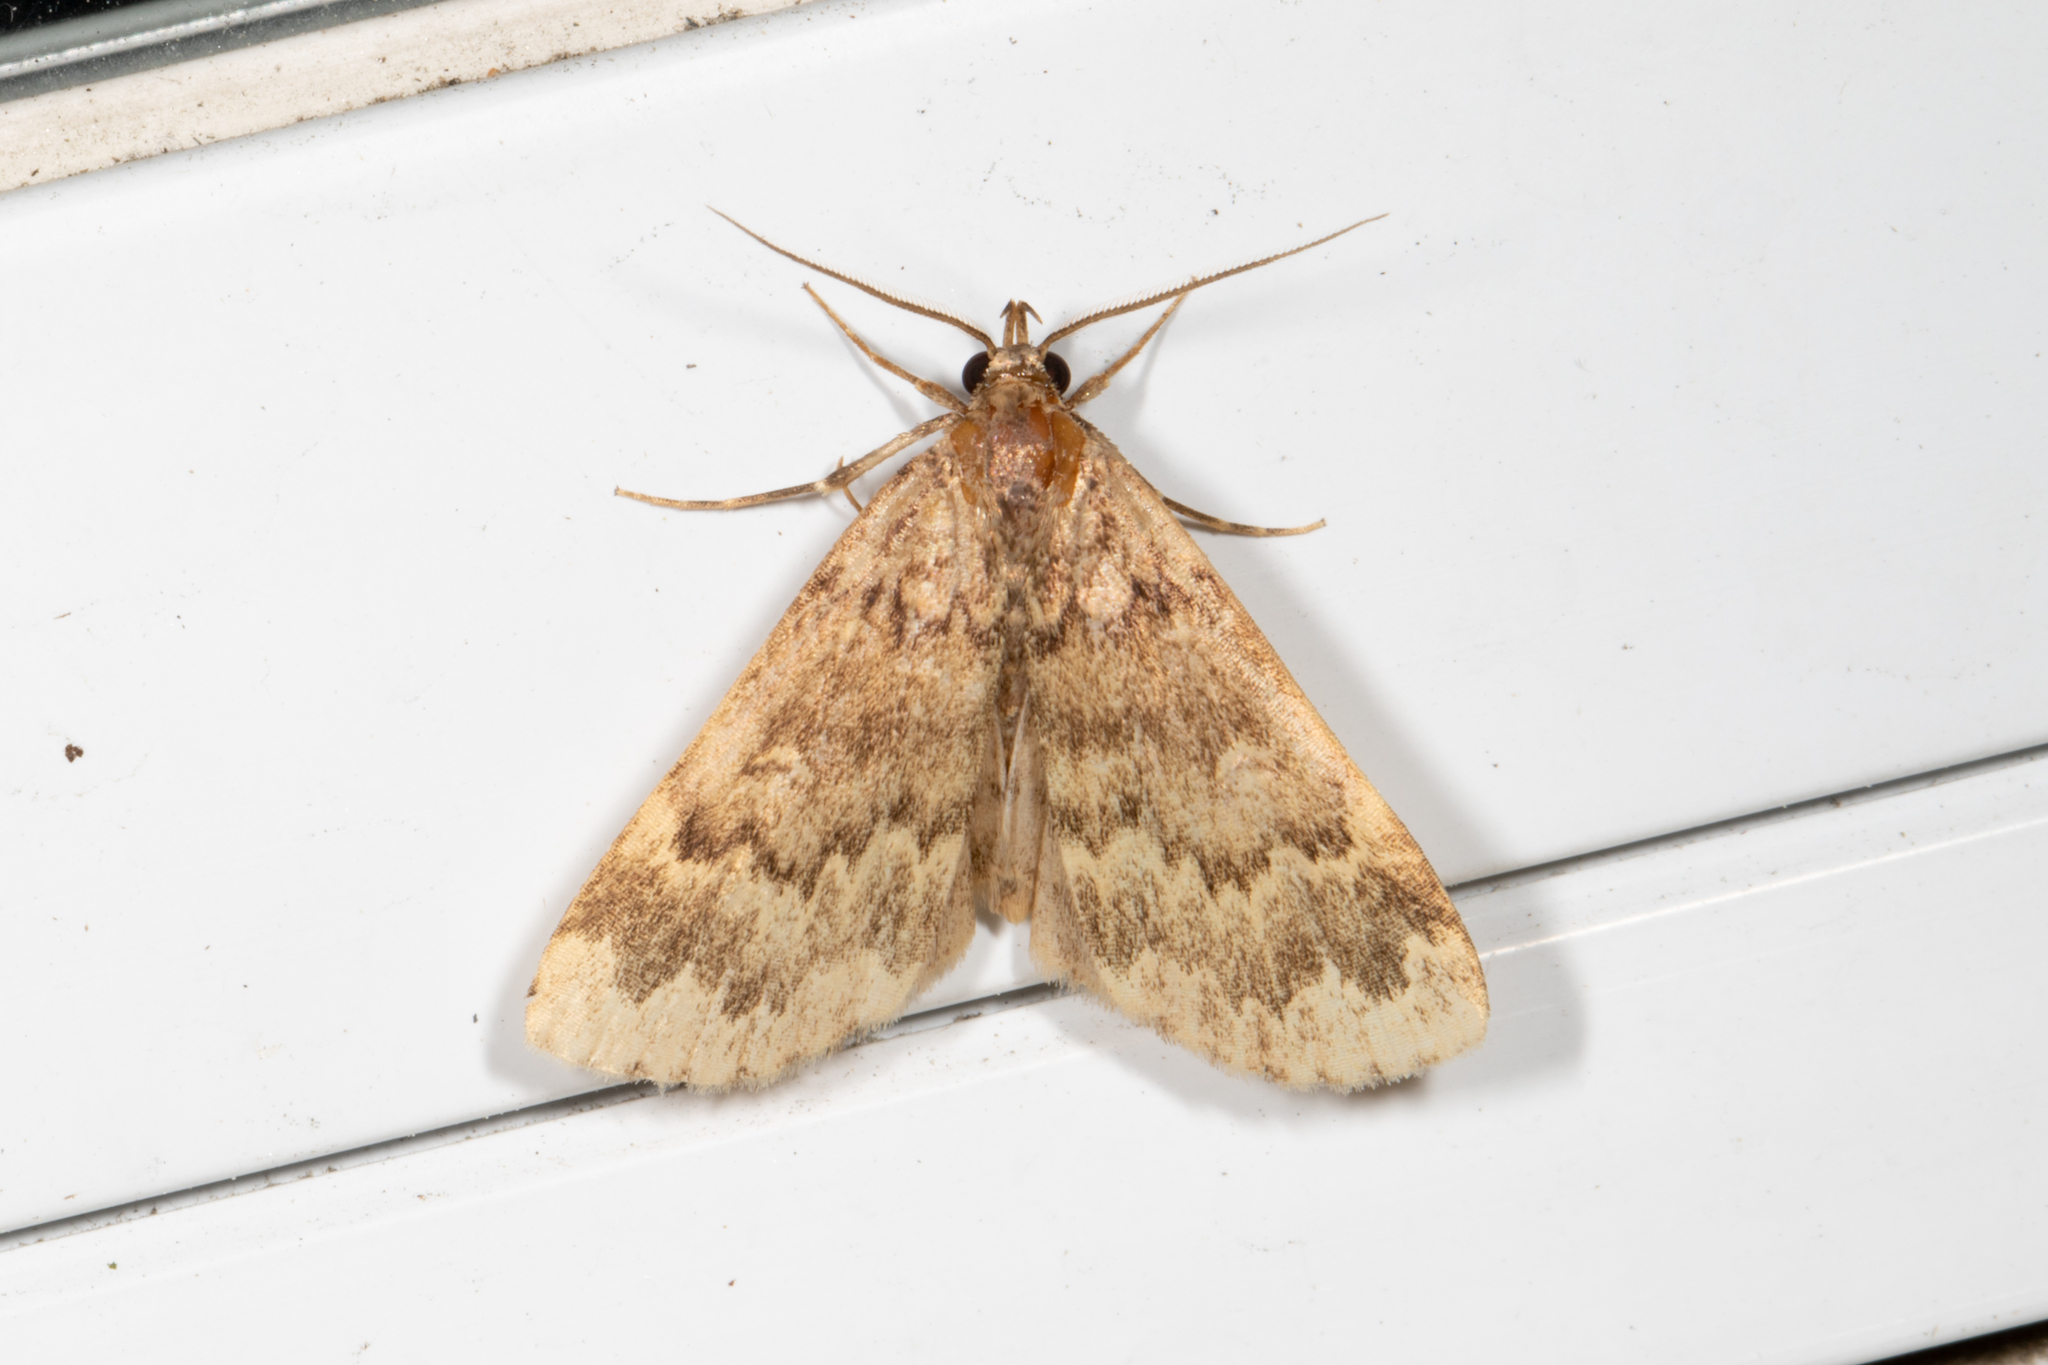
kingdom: Animalia
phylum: Arthropoda
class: Insecta
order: Lepidoptera
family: Erebidae
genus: Idia
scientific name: Idia lubricalis
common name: Twin-striped tabby
